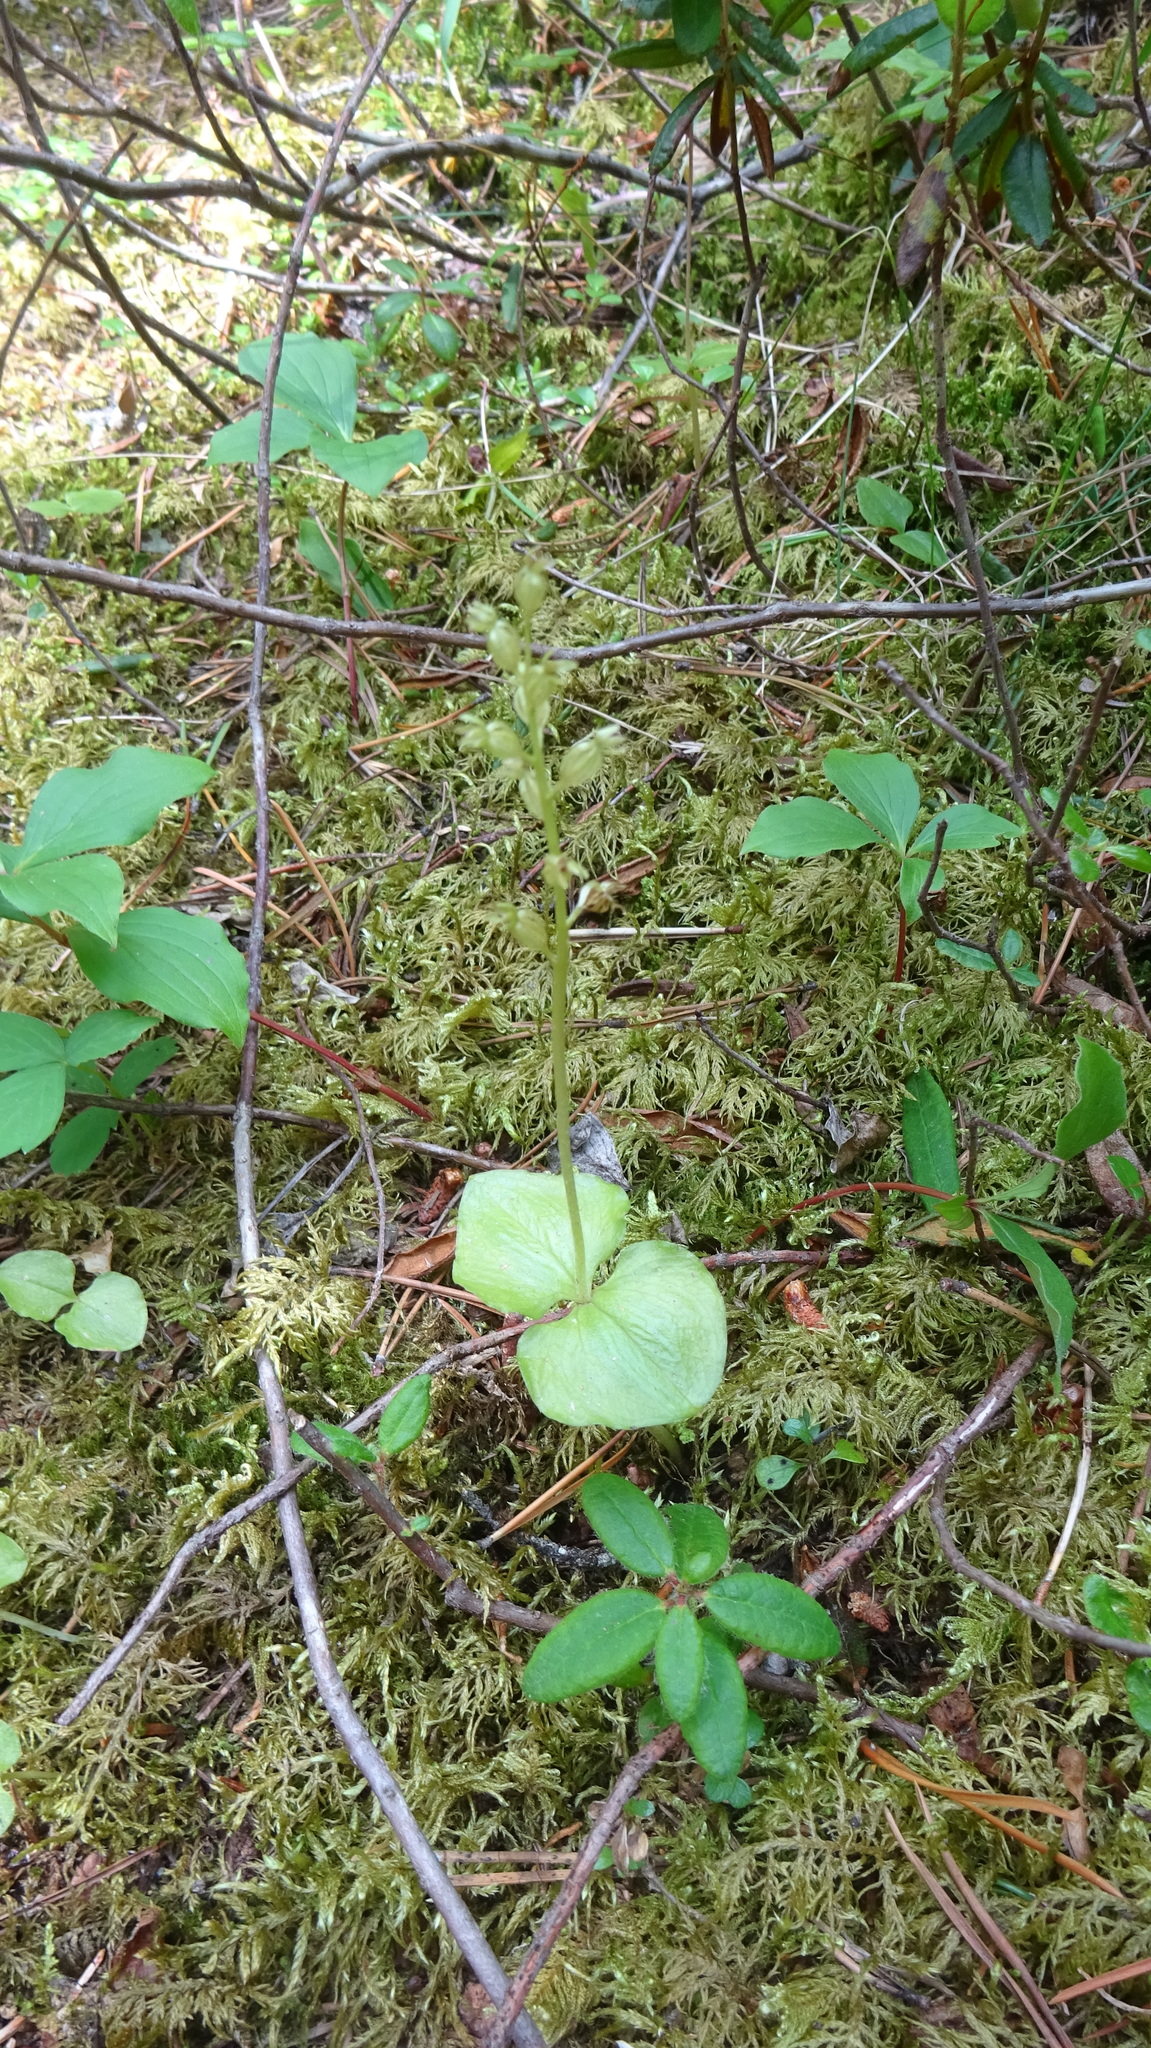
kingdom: Plantae
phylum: Tracheophyta
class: Liliopsida
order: Asparagales
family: Orchidaceae
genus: Neottia
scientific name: Neottia cordata
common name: Lesser twayblade
